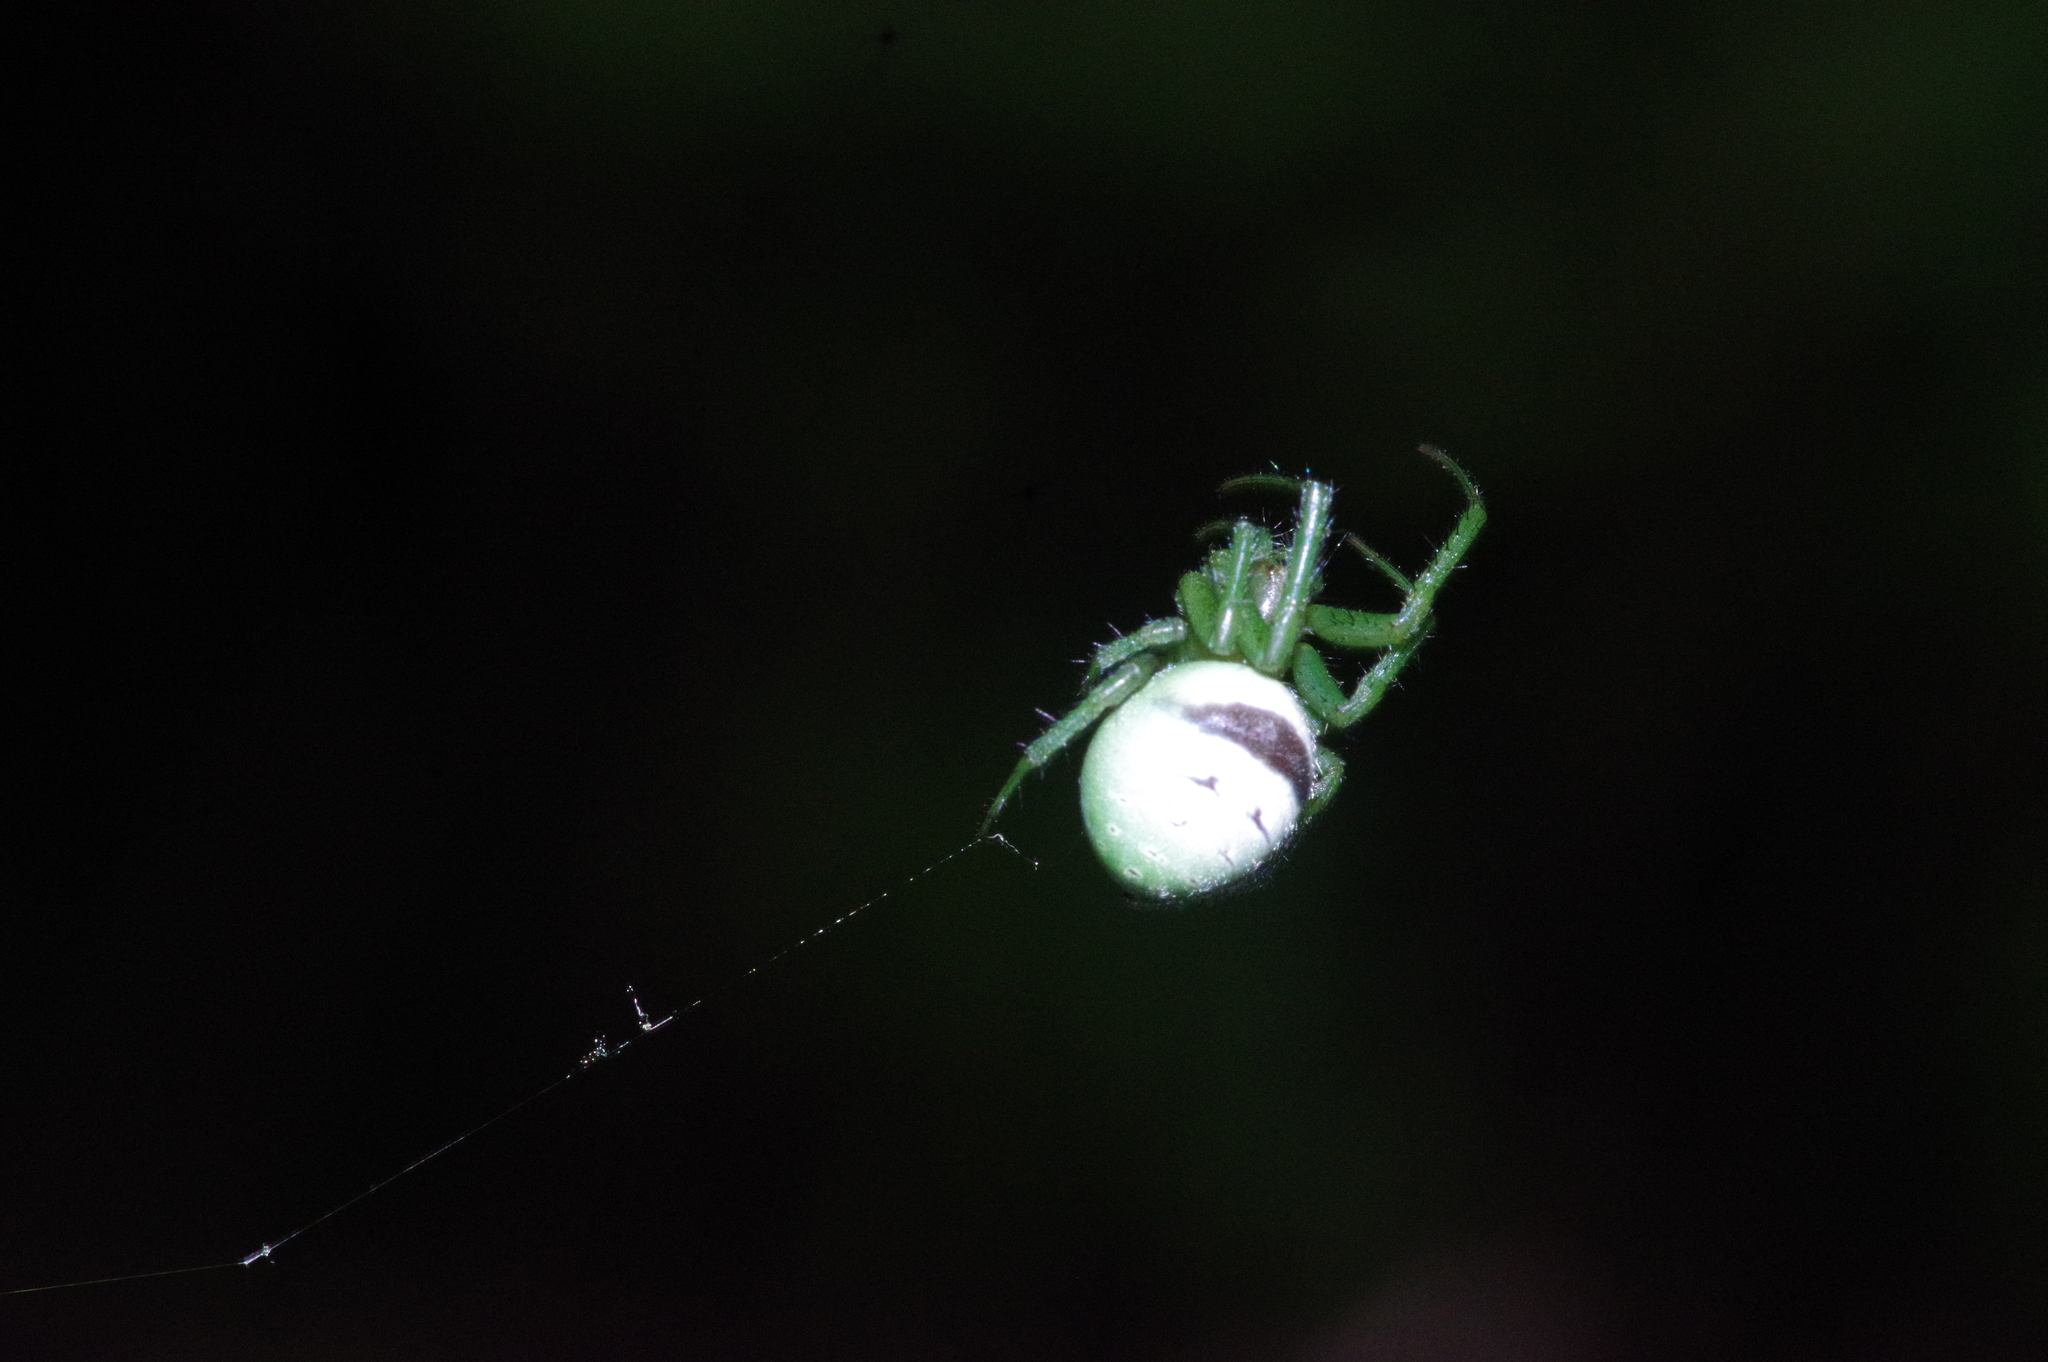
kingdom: Animalia
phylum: Arthropoda
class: Arachnida
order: Araneae
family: Araneidae
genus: Aoaraneus
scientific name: Aoaraneus amabilis
